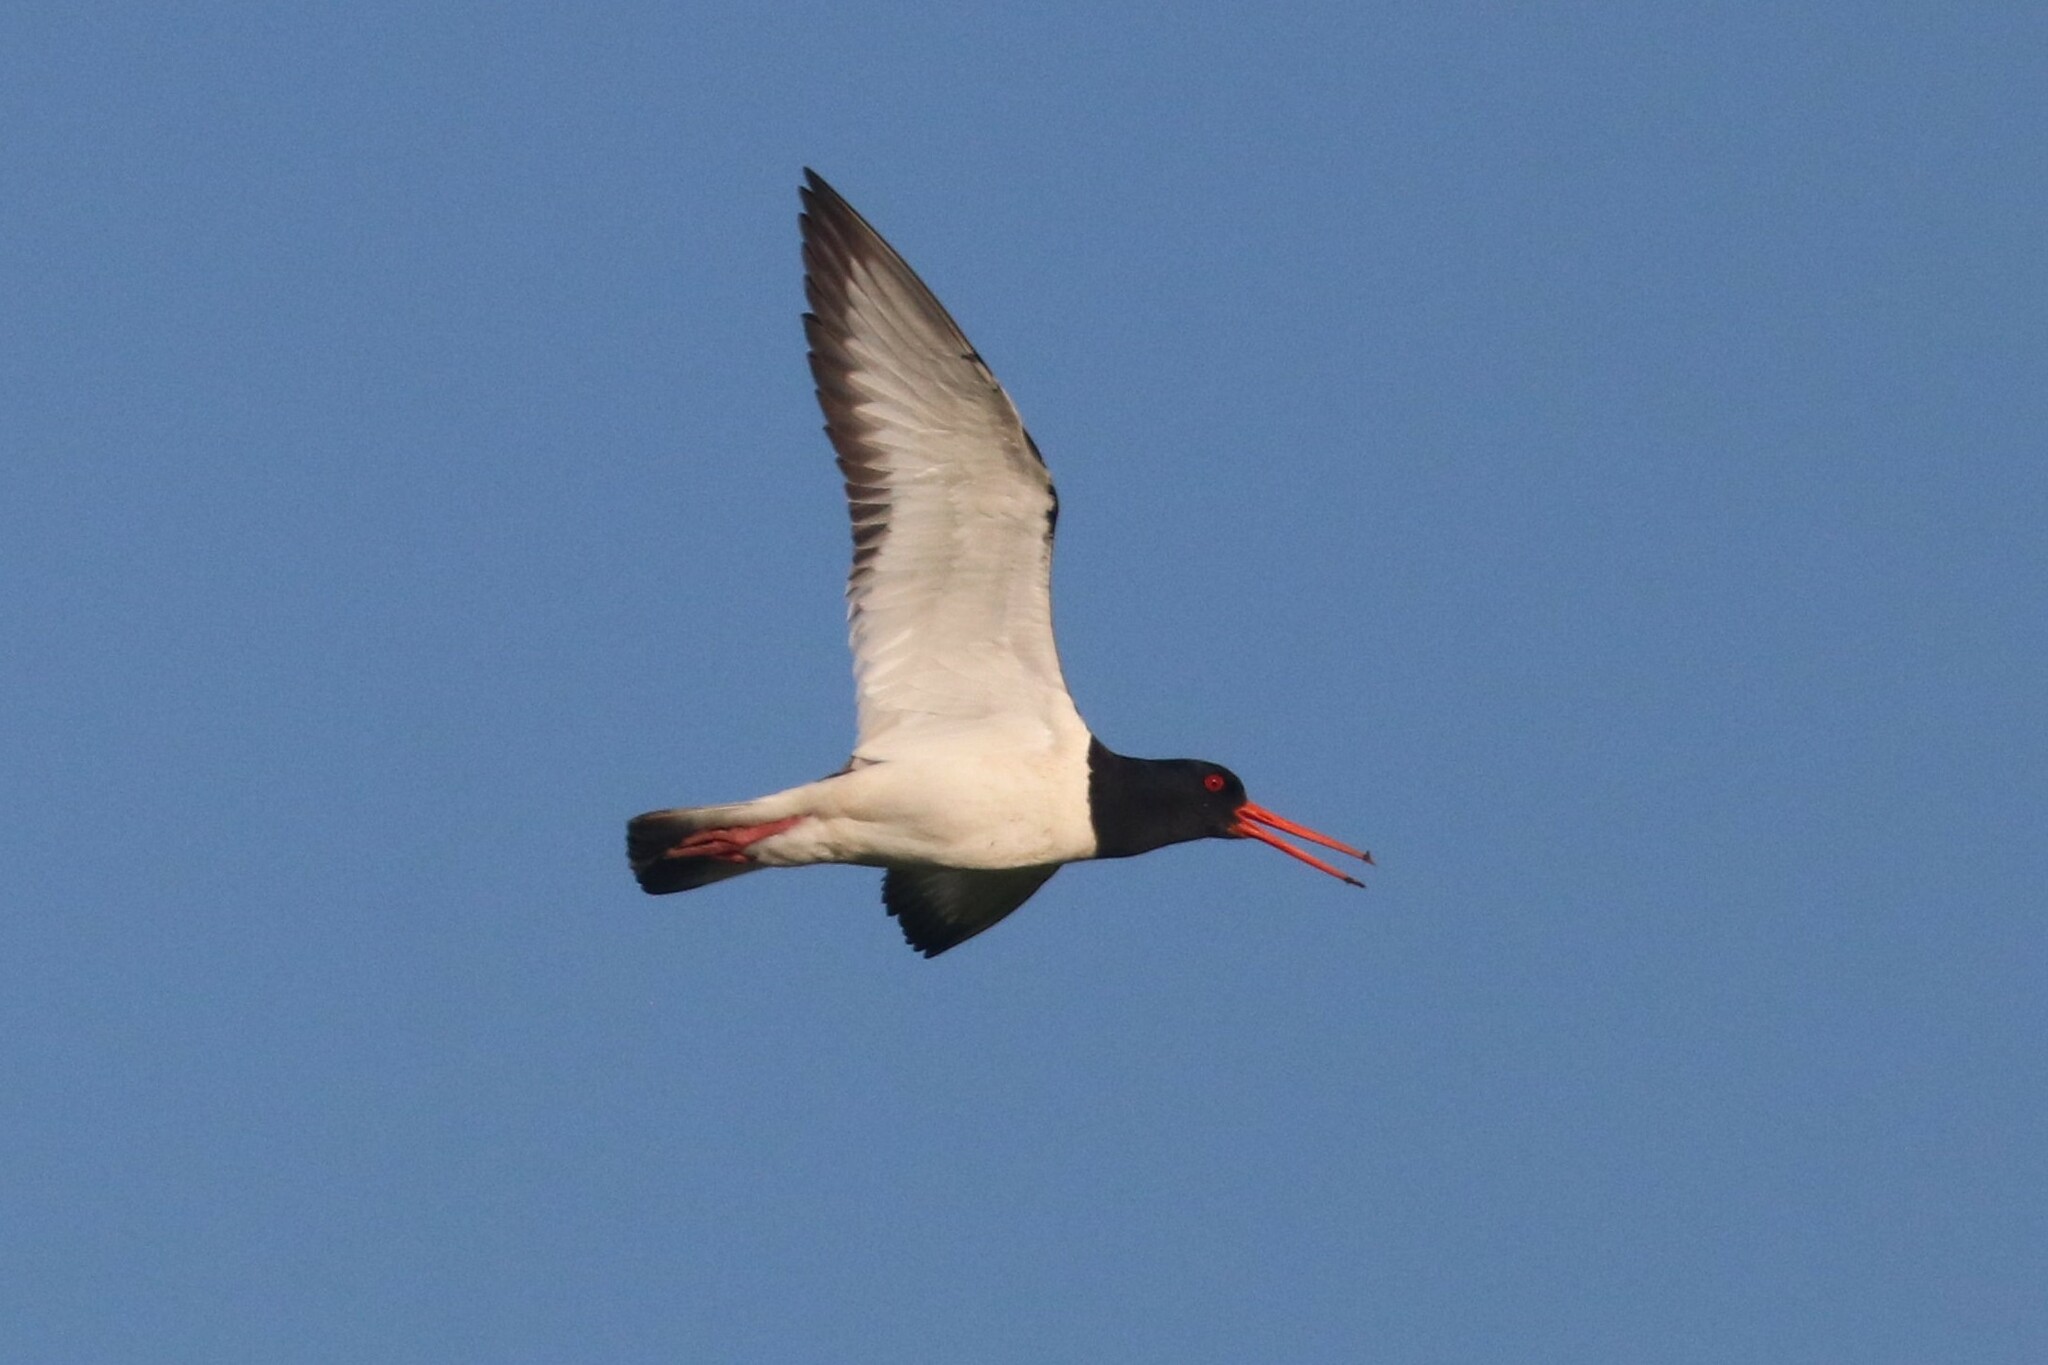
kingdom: Animalia
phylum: Chordata
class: Aves
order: Charadriiformes
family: Haematopodidae
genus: Haematopus
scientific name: Haematopus ostralegus
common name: Eurasian oystercatcher
